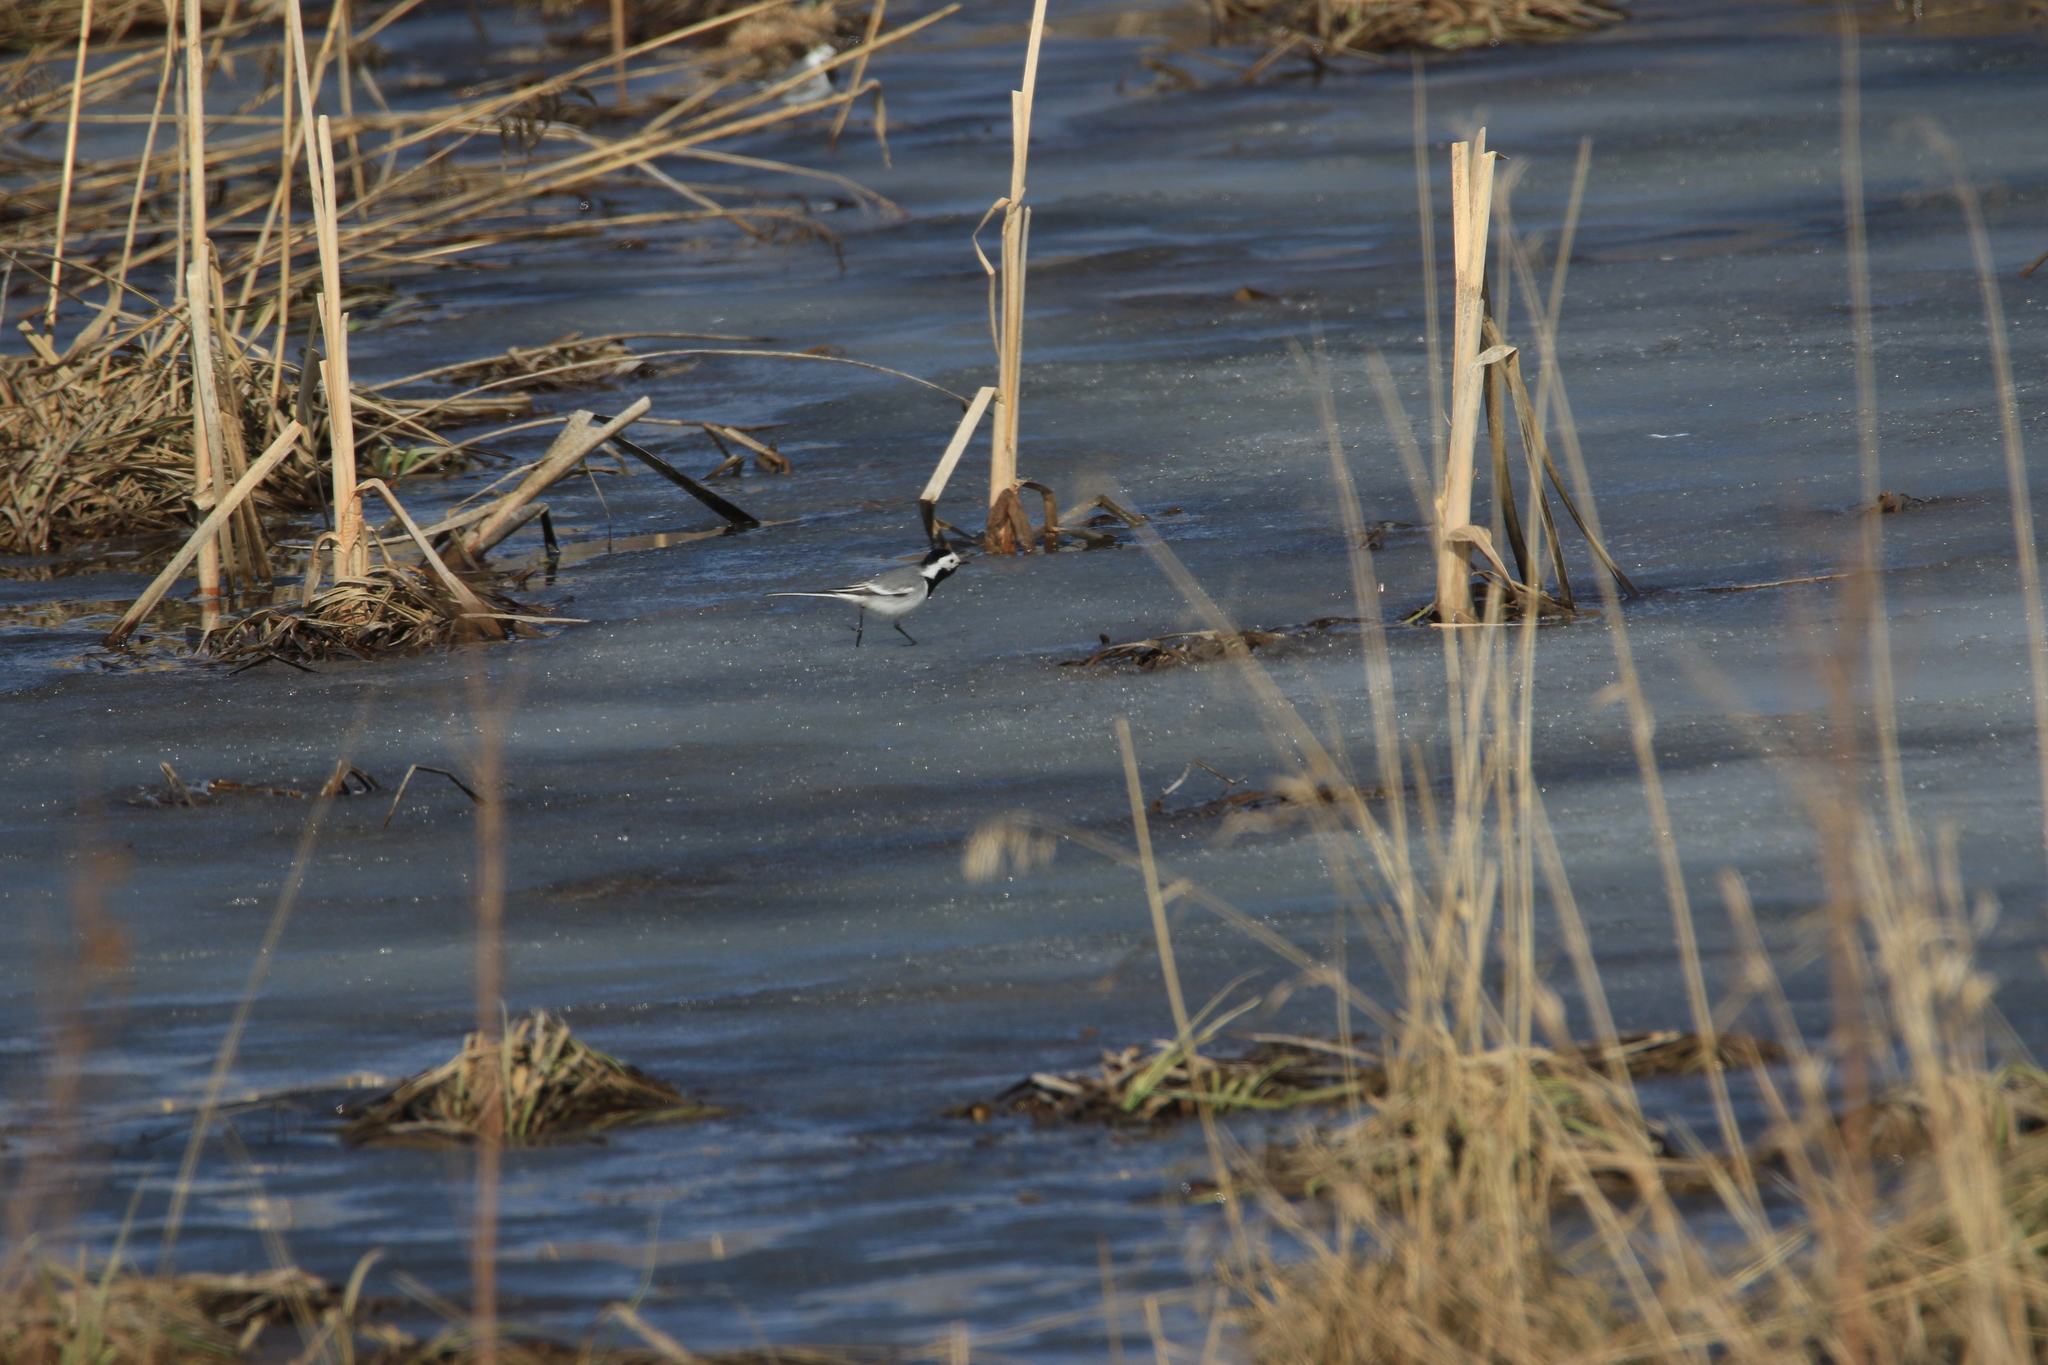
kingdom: Animalia
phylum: Chordata
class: Aves
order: Passeriformes
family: Motacillidae
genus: Motacilla
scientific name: Motacilla alba
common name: White wagtail
